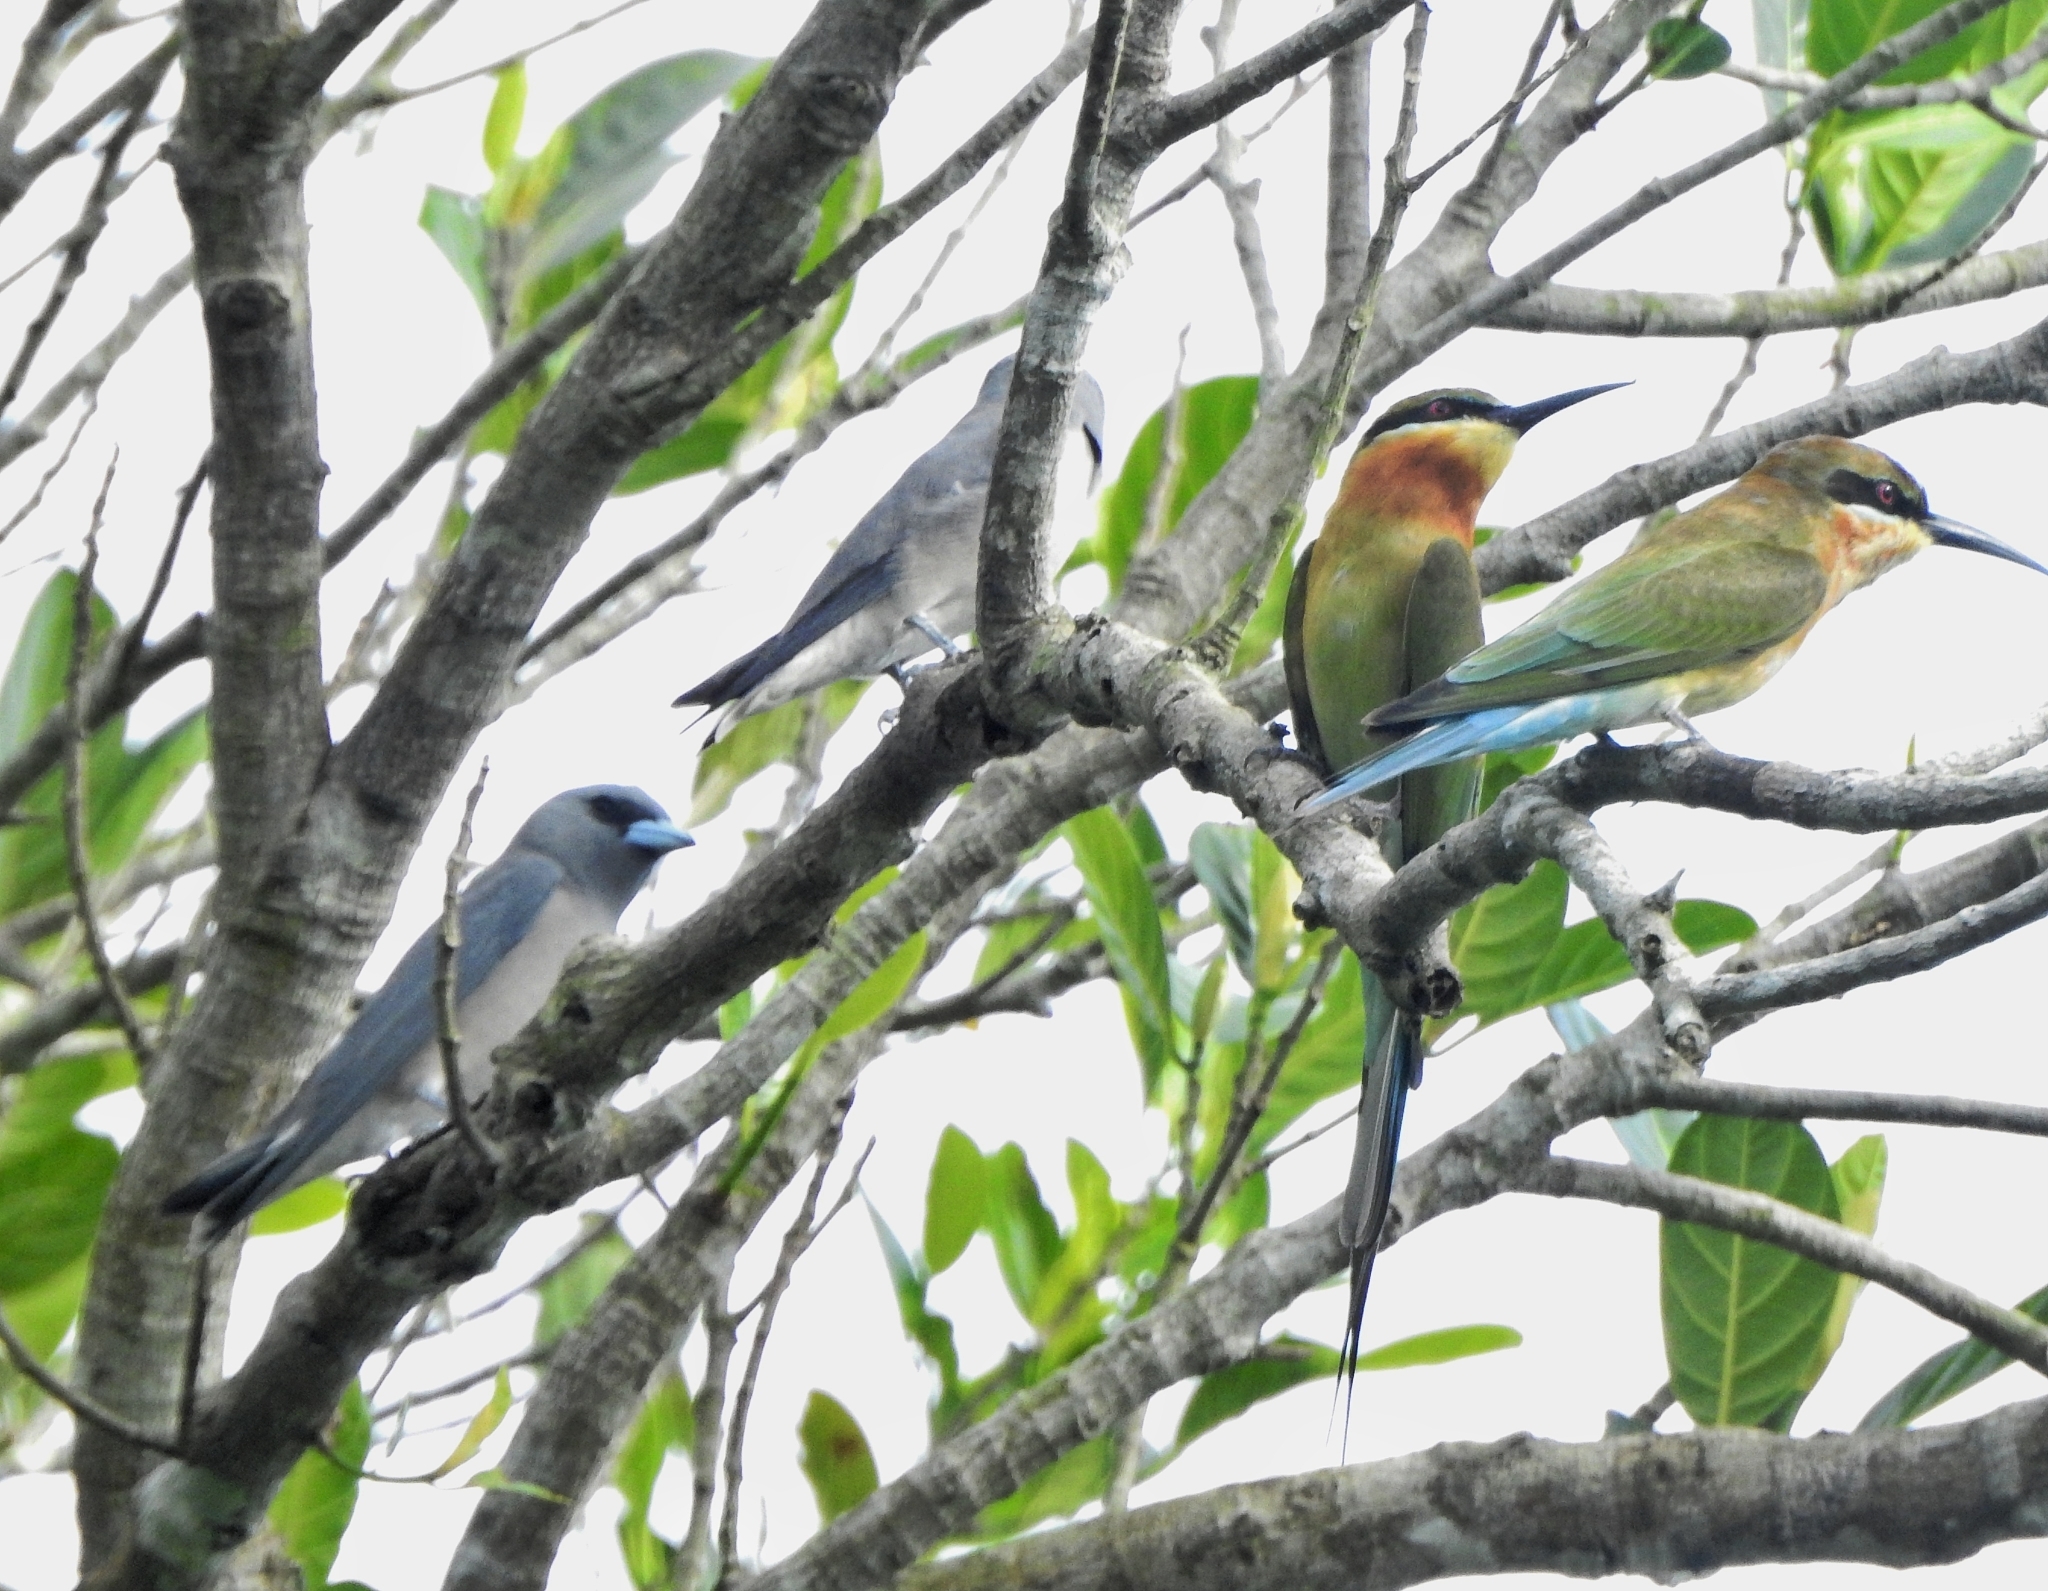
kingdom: Animalia
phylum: Chordata
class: Aves
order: Coraciiformes
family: Meropidae
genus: Merops
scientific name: Merops philippinus
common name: Blue-tailed bee-eater
